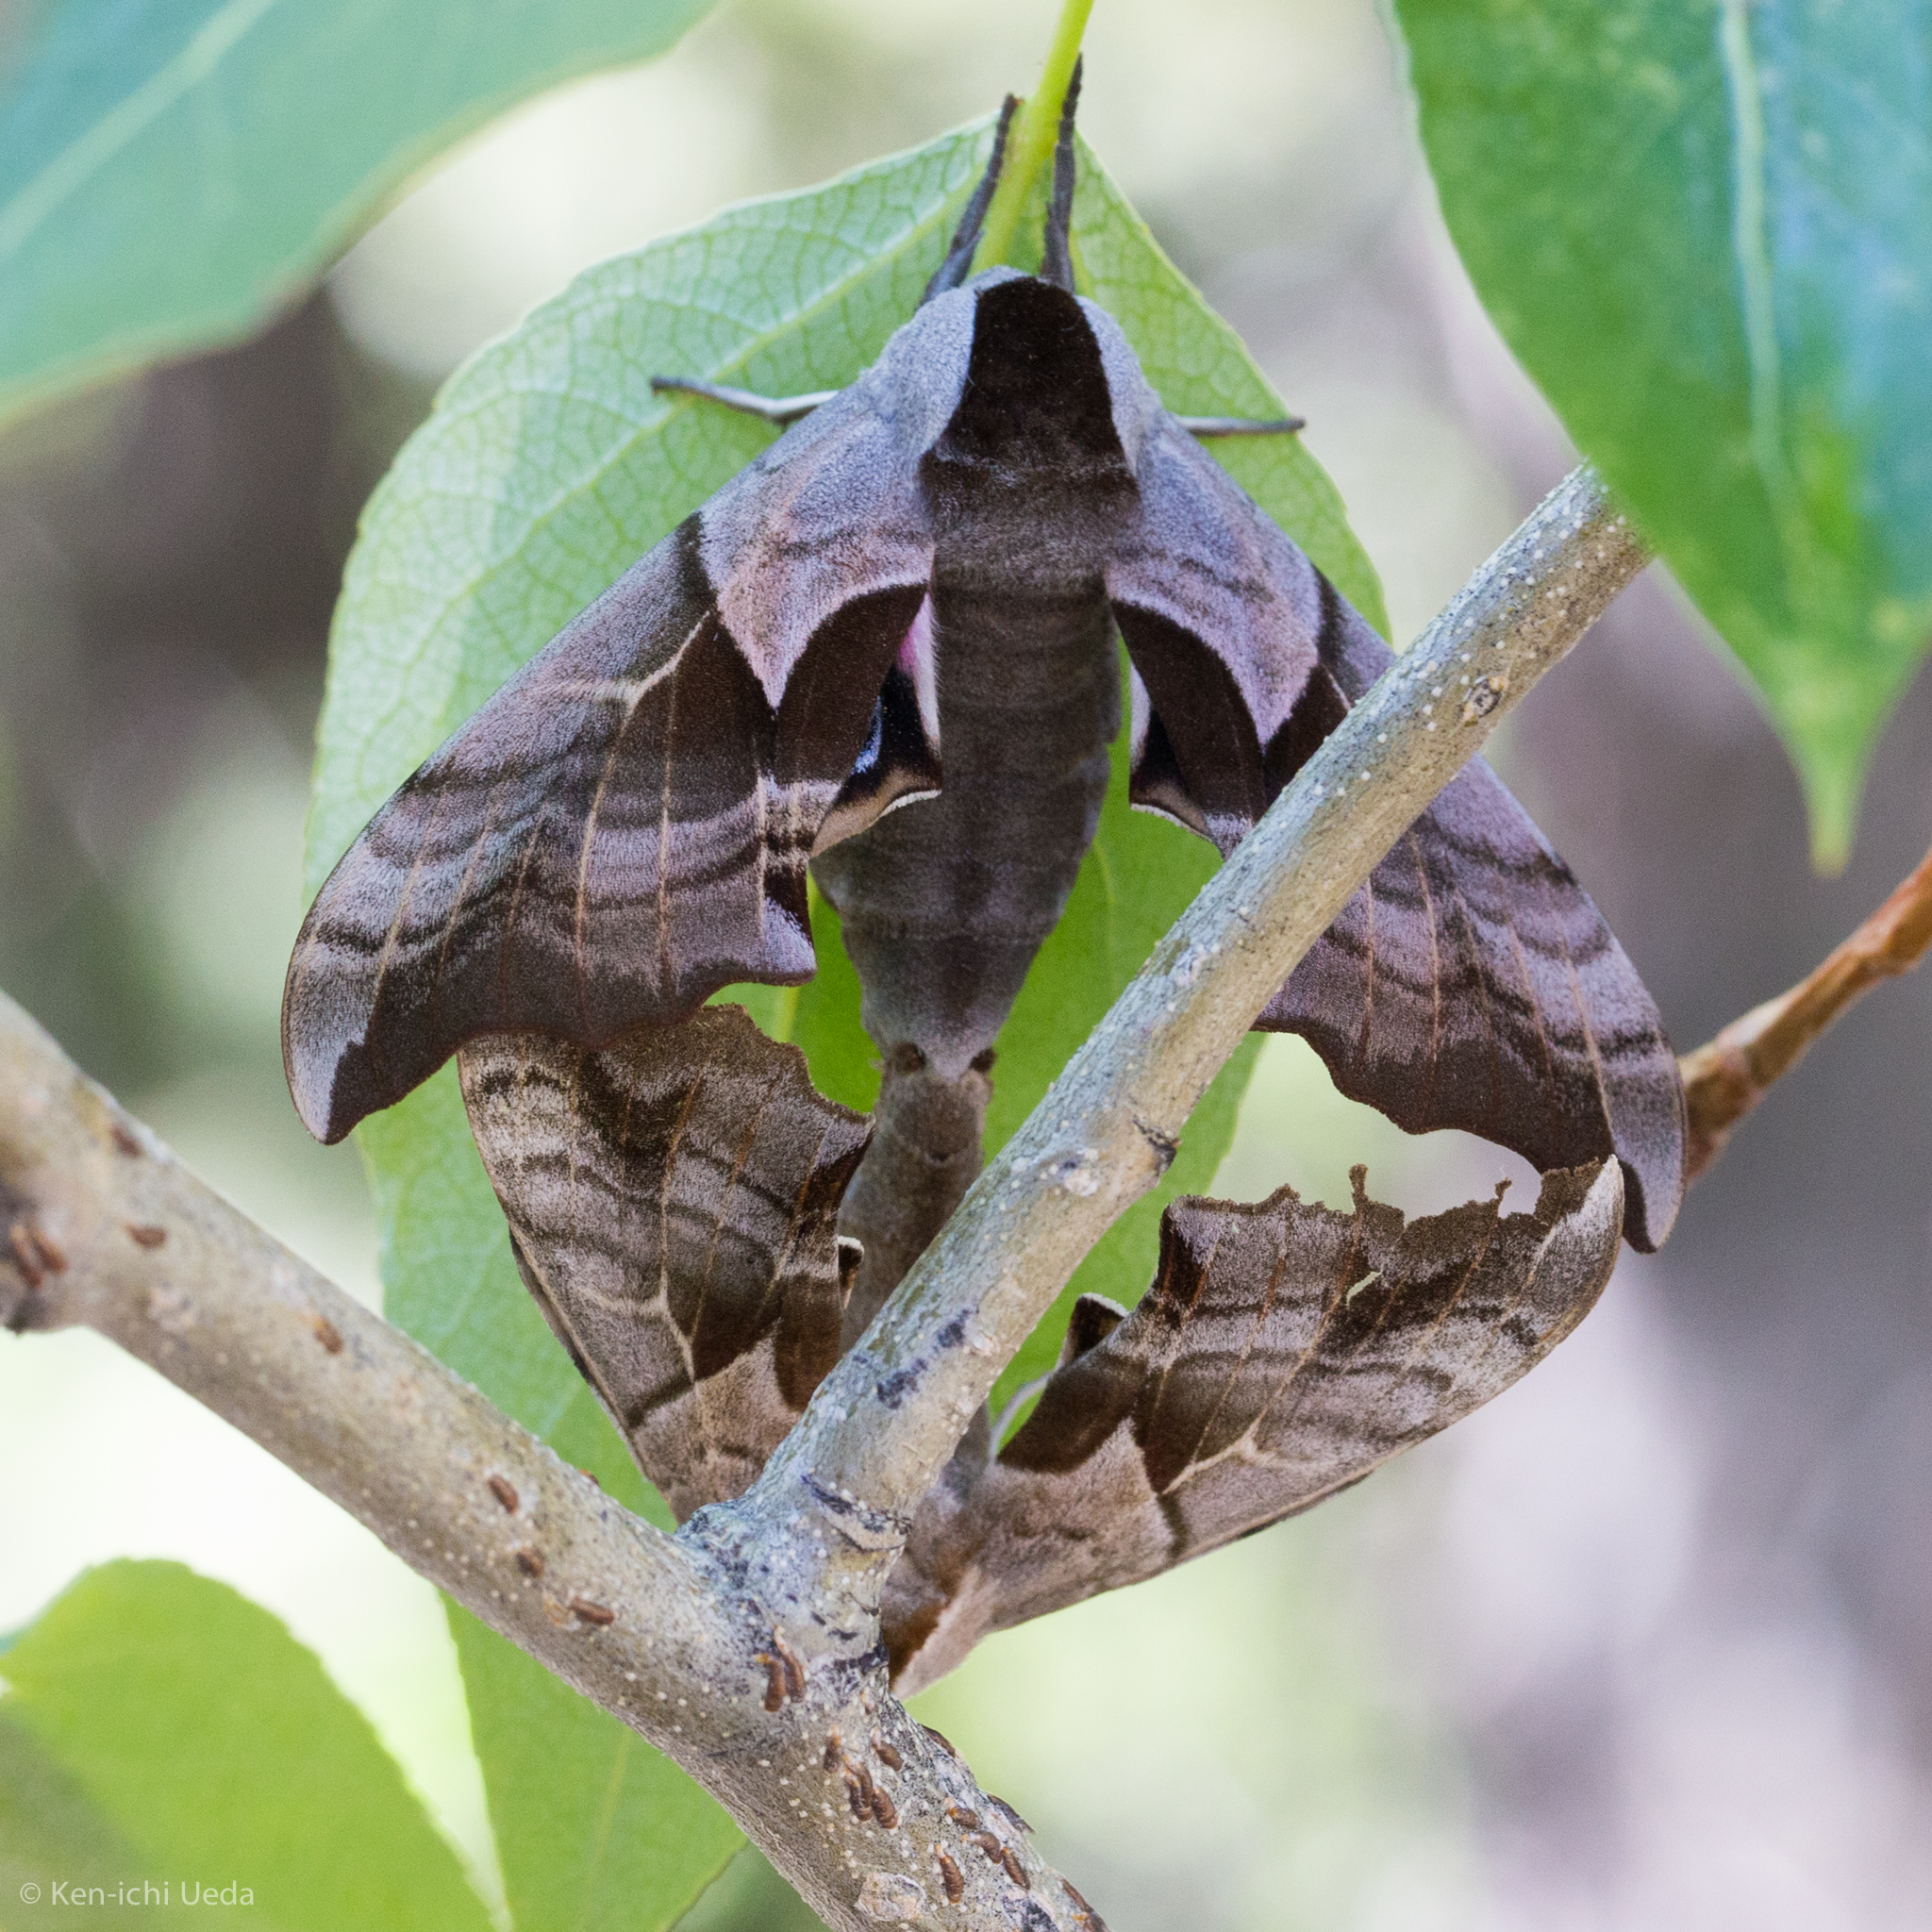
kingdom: Animalia
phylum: Arthropoda
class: Insecta
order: Lepidoptera
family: Sphingidae
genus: Smerinthus
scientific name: Smerinthus cerisyi
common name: Cerisy's sphinx moth
